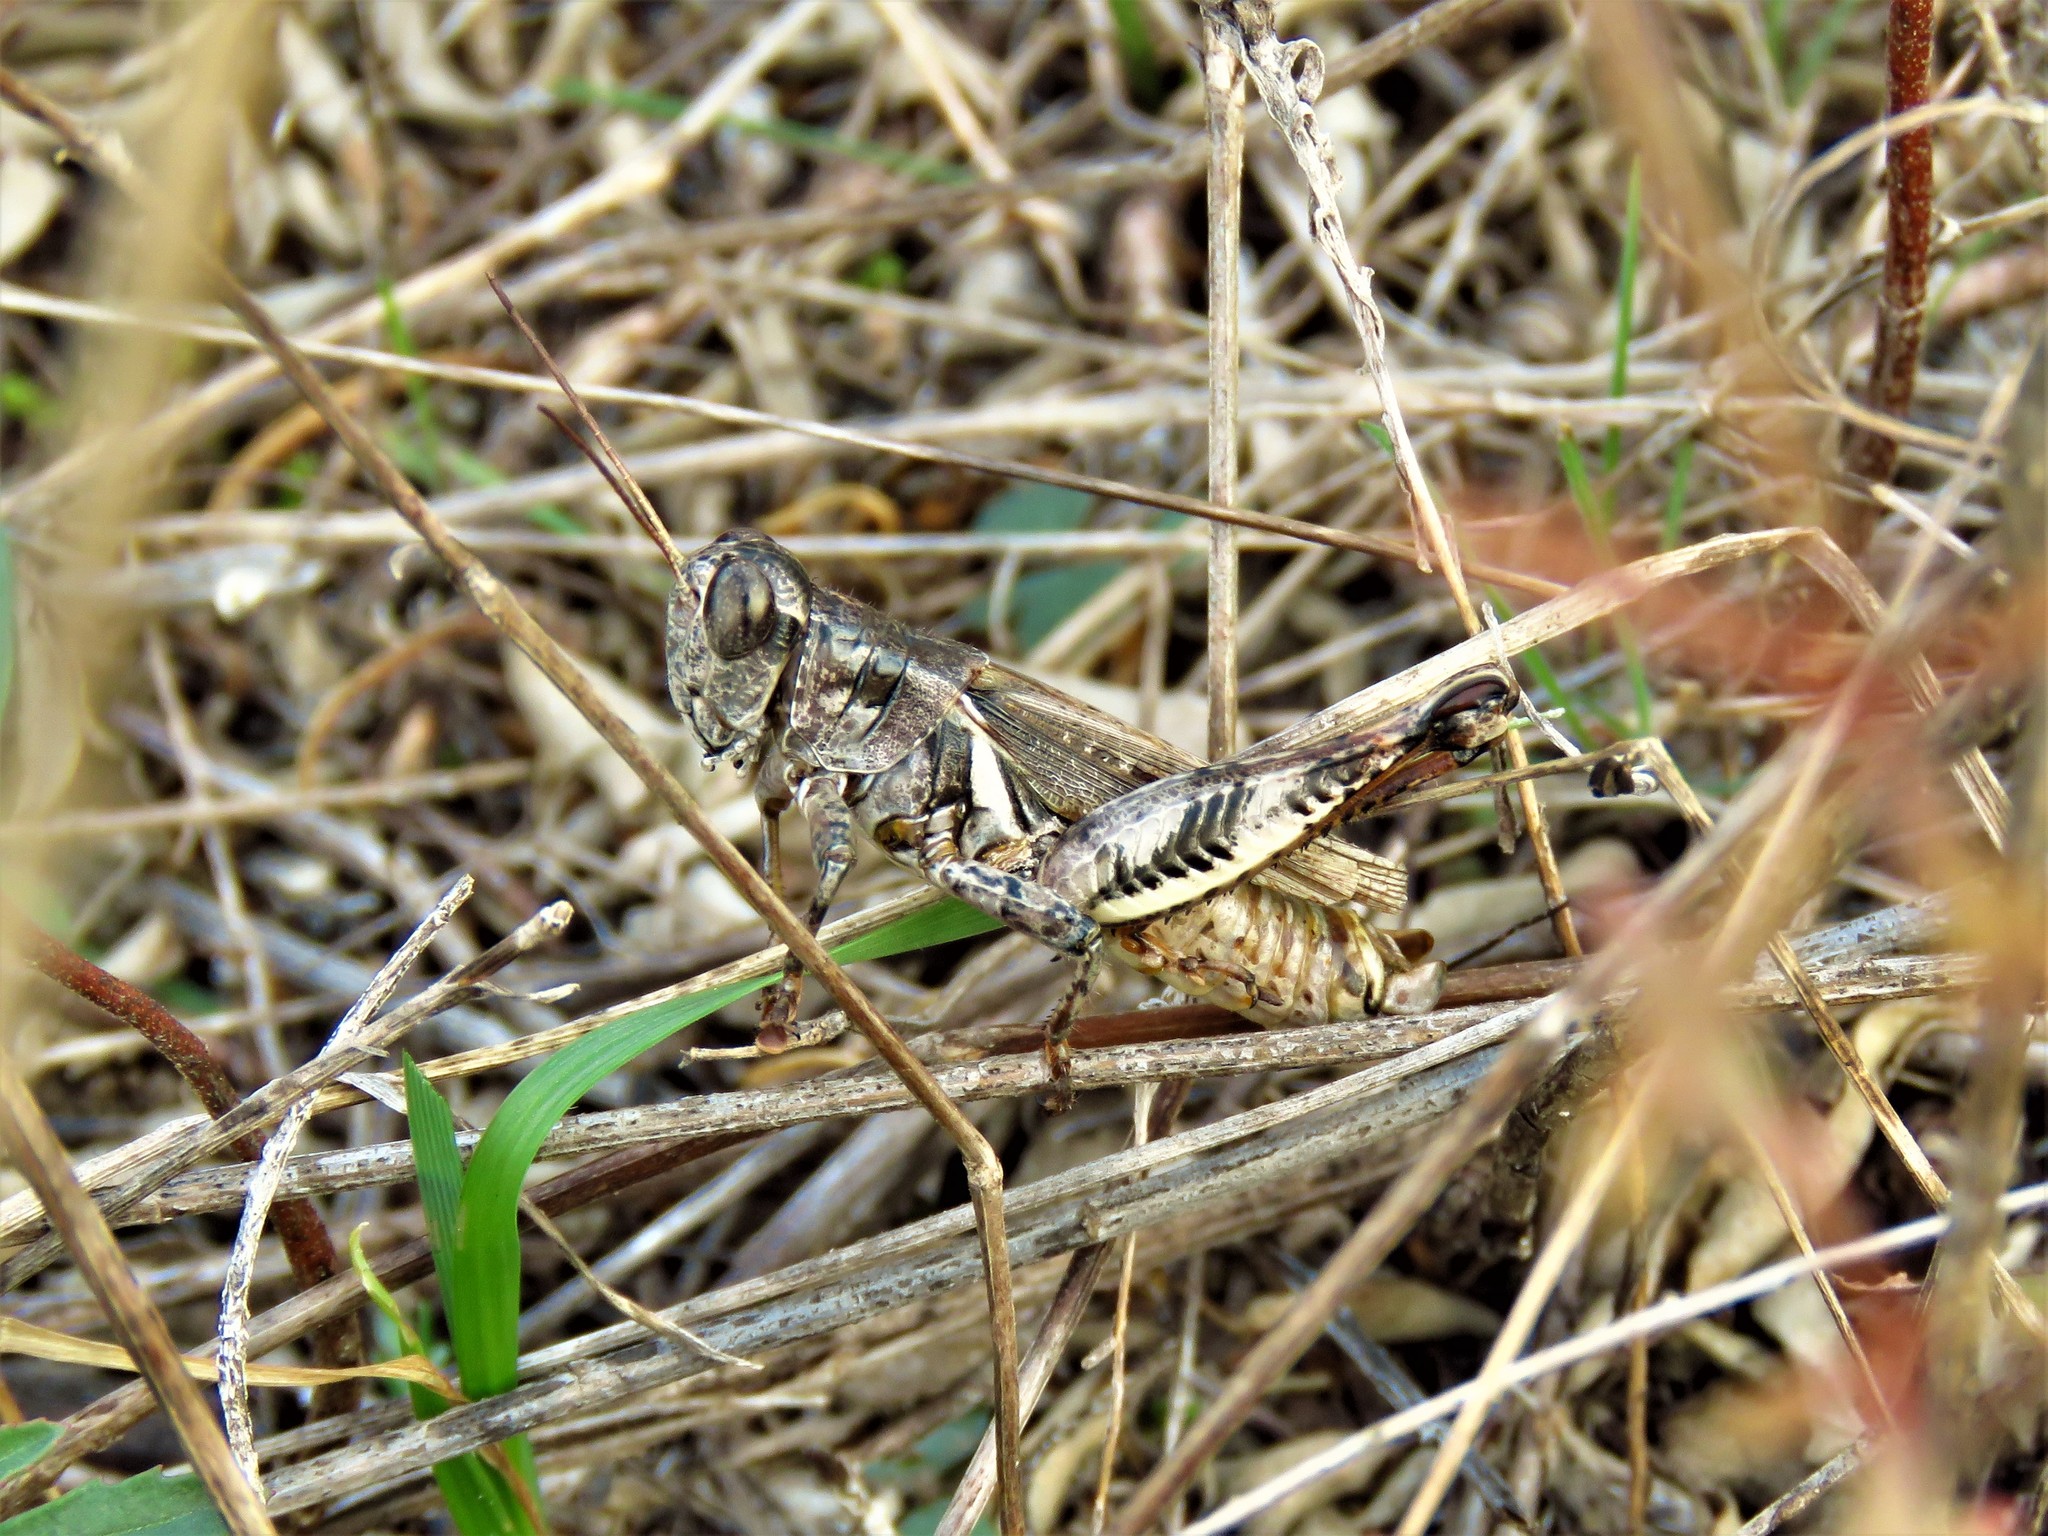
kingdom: Animalia
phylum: Arthropoda
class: Insecta
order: Orthoptera
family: Acrididae
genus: Melanoplus
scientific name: Melanoplus ponderosus
